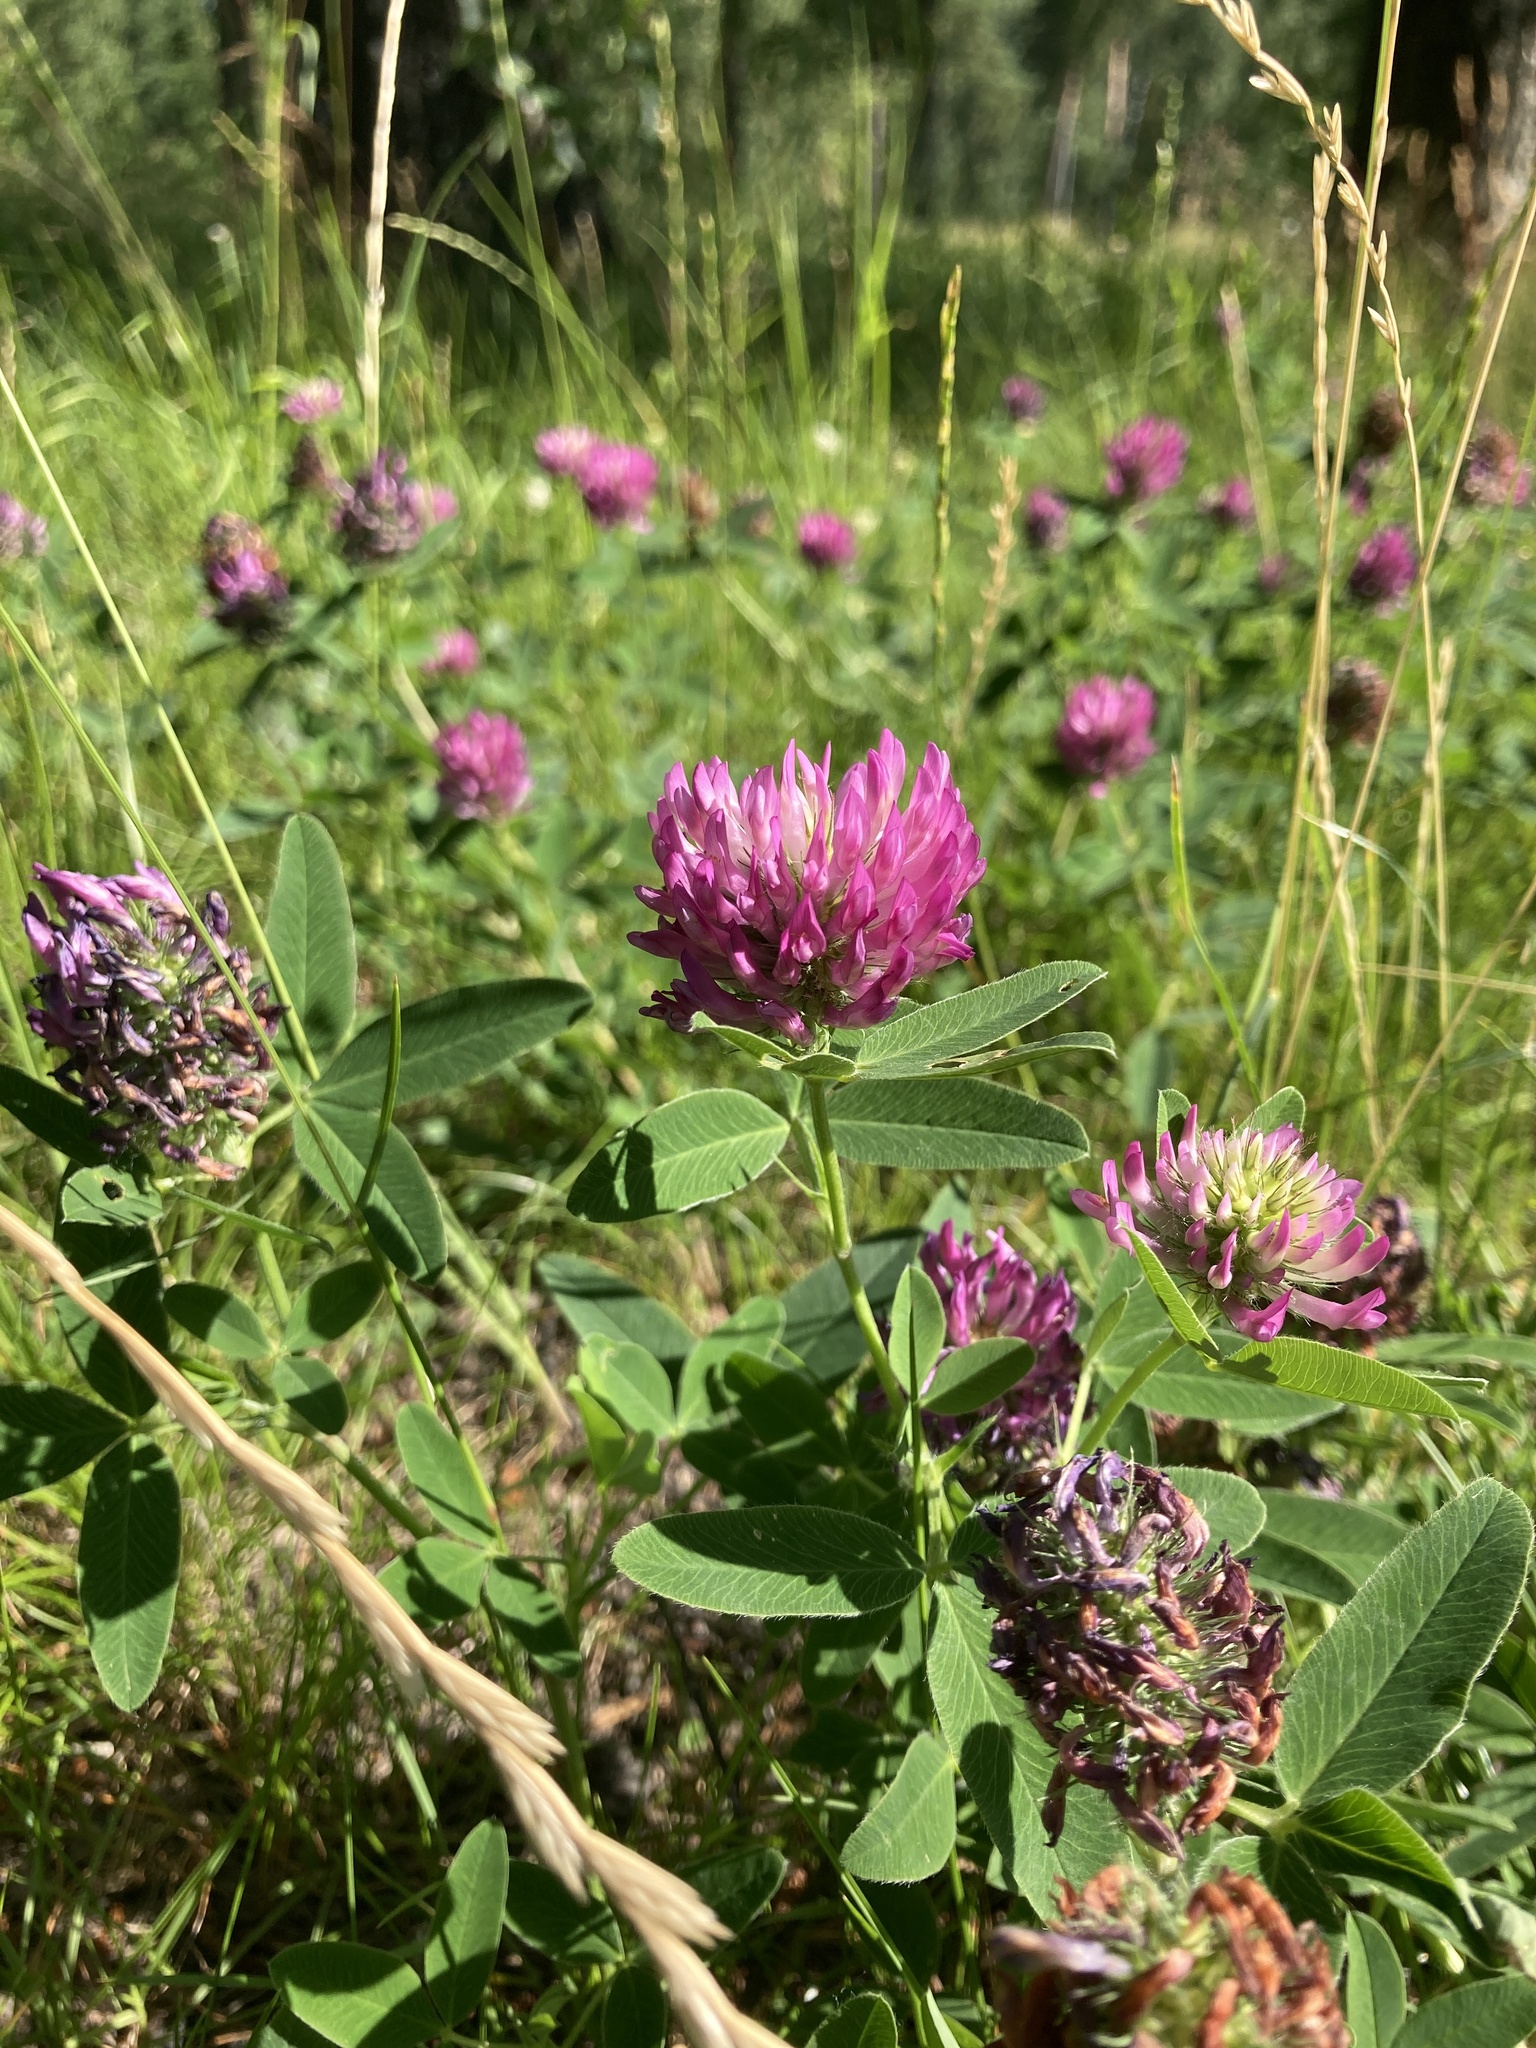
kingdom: Plantae
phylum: Tracheophyta
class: Magnoliopsida
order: Fabales
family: Fabaceae
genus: Trifolium
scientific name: Trifolium medium
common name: Zigzag clover
